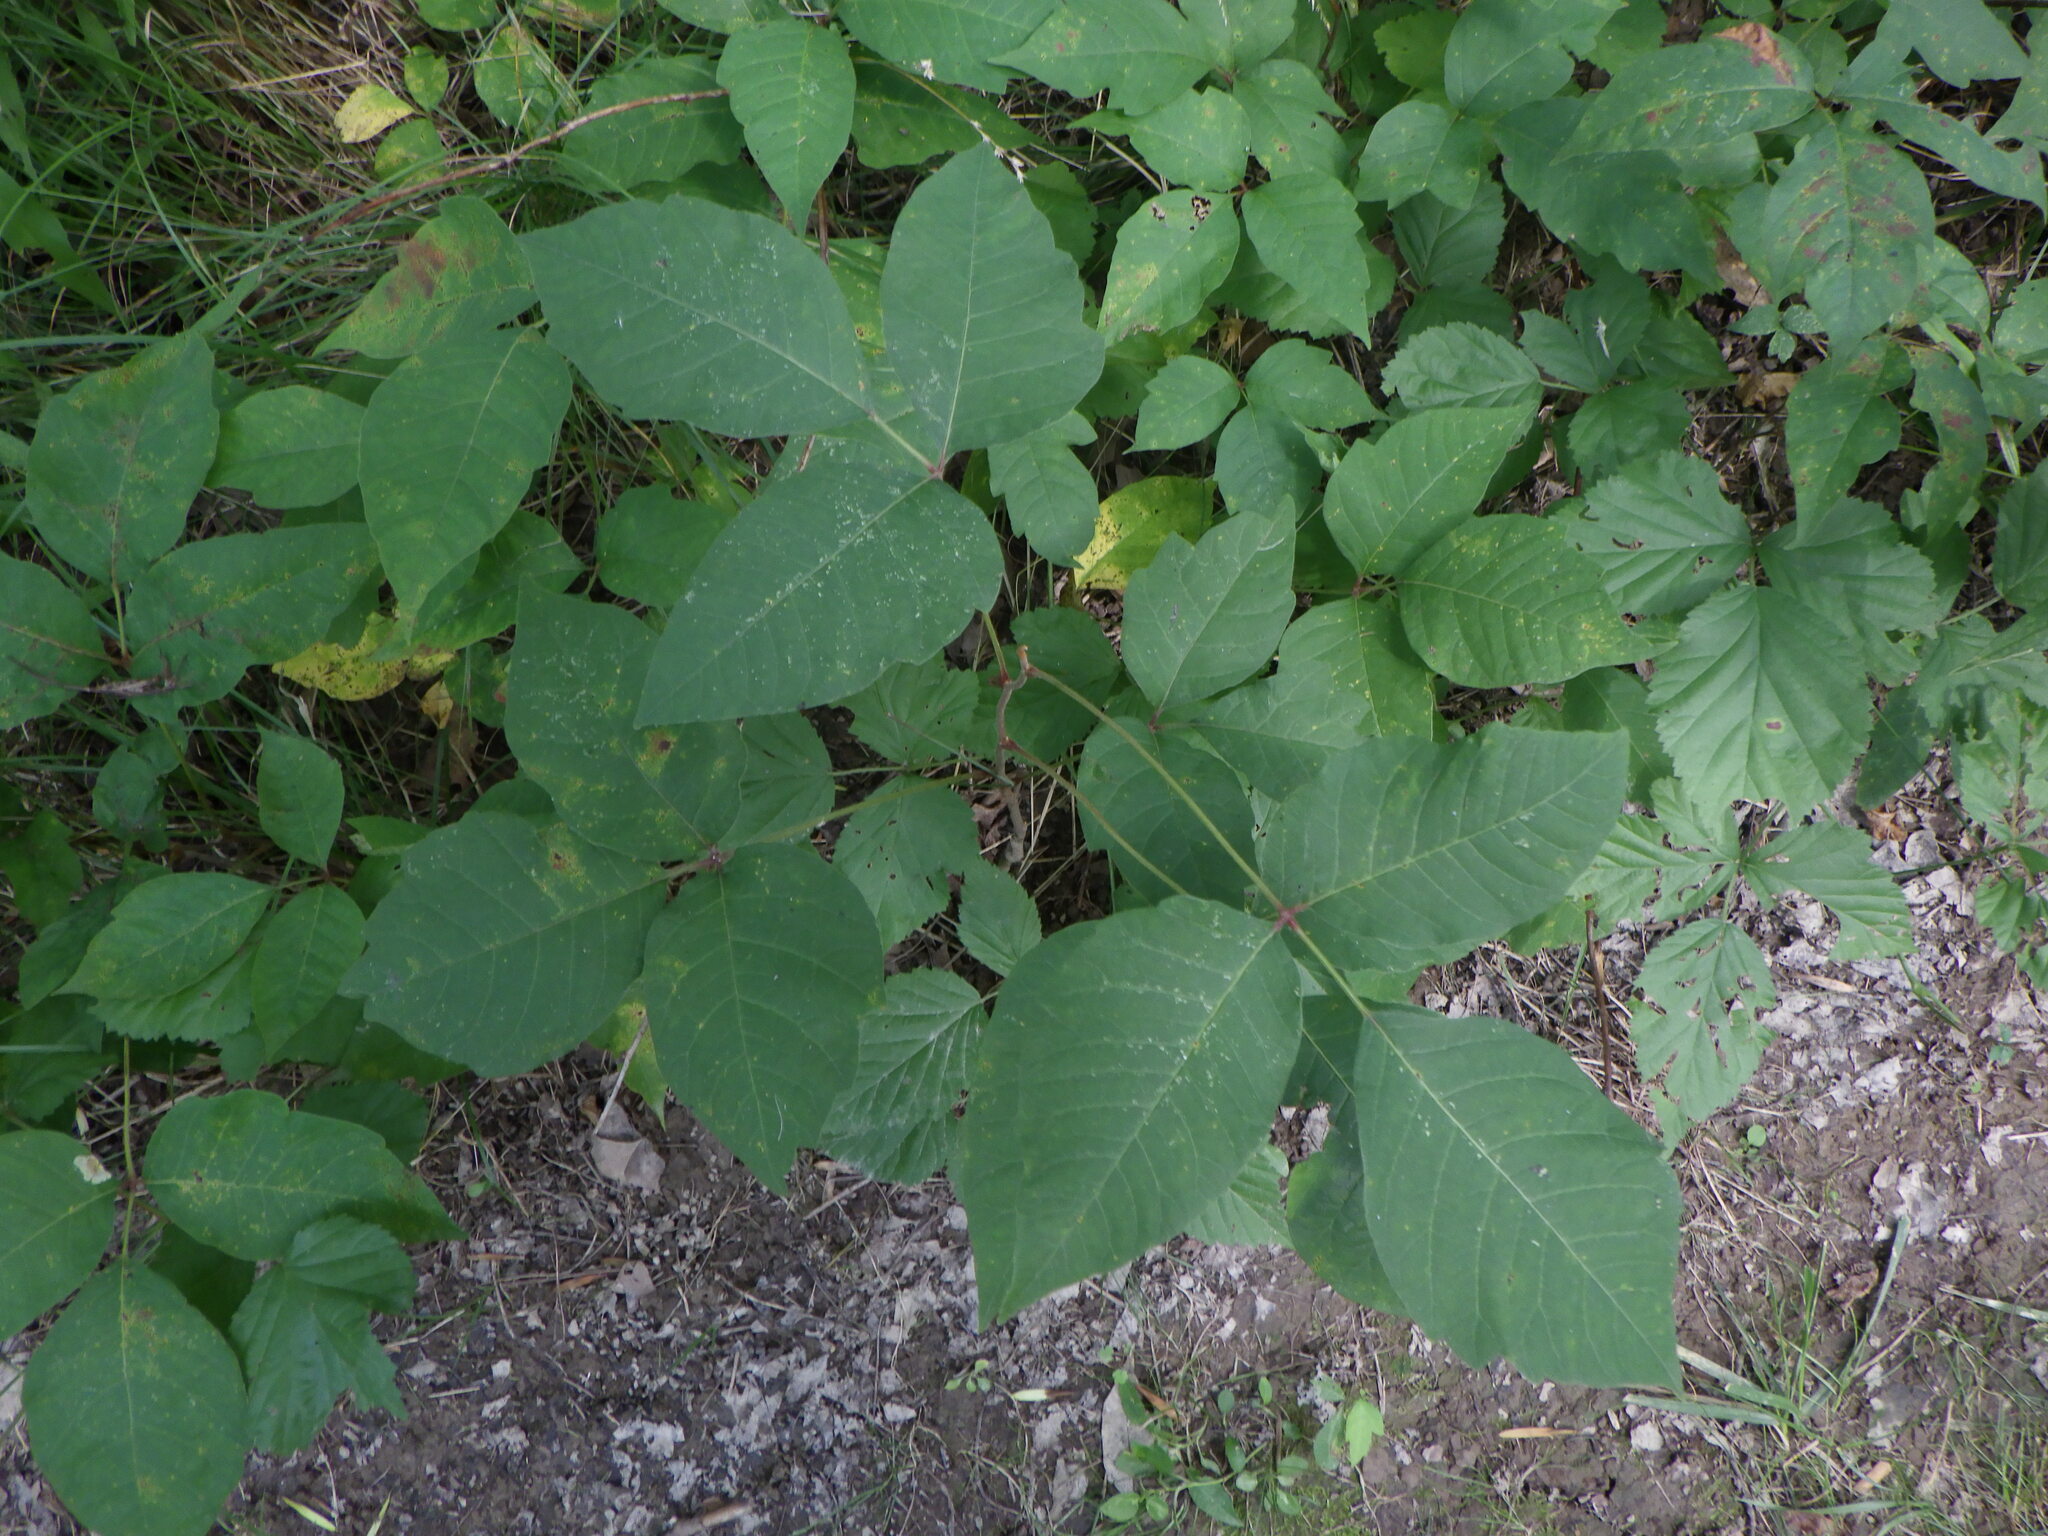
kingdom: Plantae
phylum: Tracheophyta
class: Magnoliopsida
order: Sapindales
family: Anacardiaceae
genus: Toxicodendron
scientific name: Toxicodendron radicans
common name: Poison ivy
